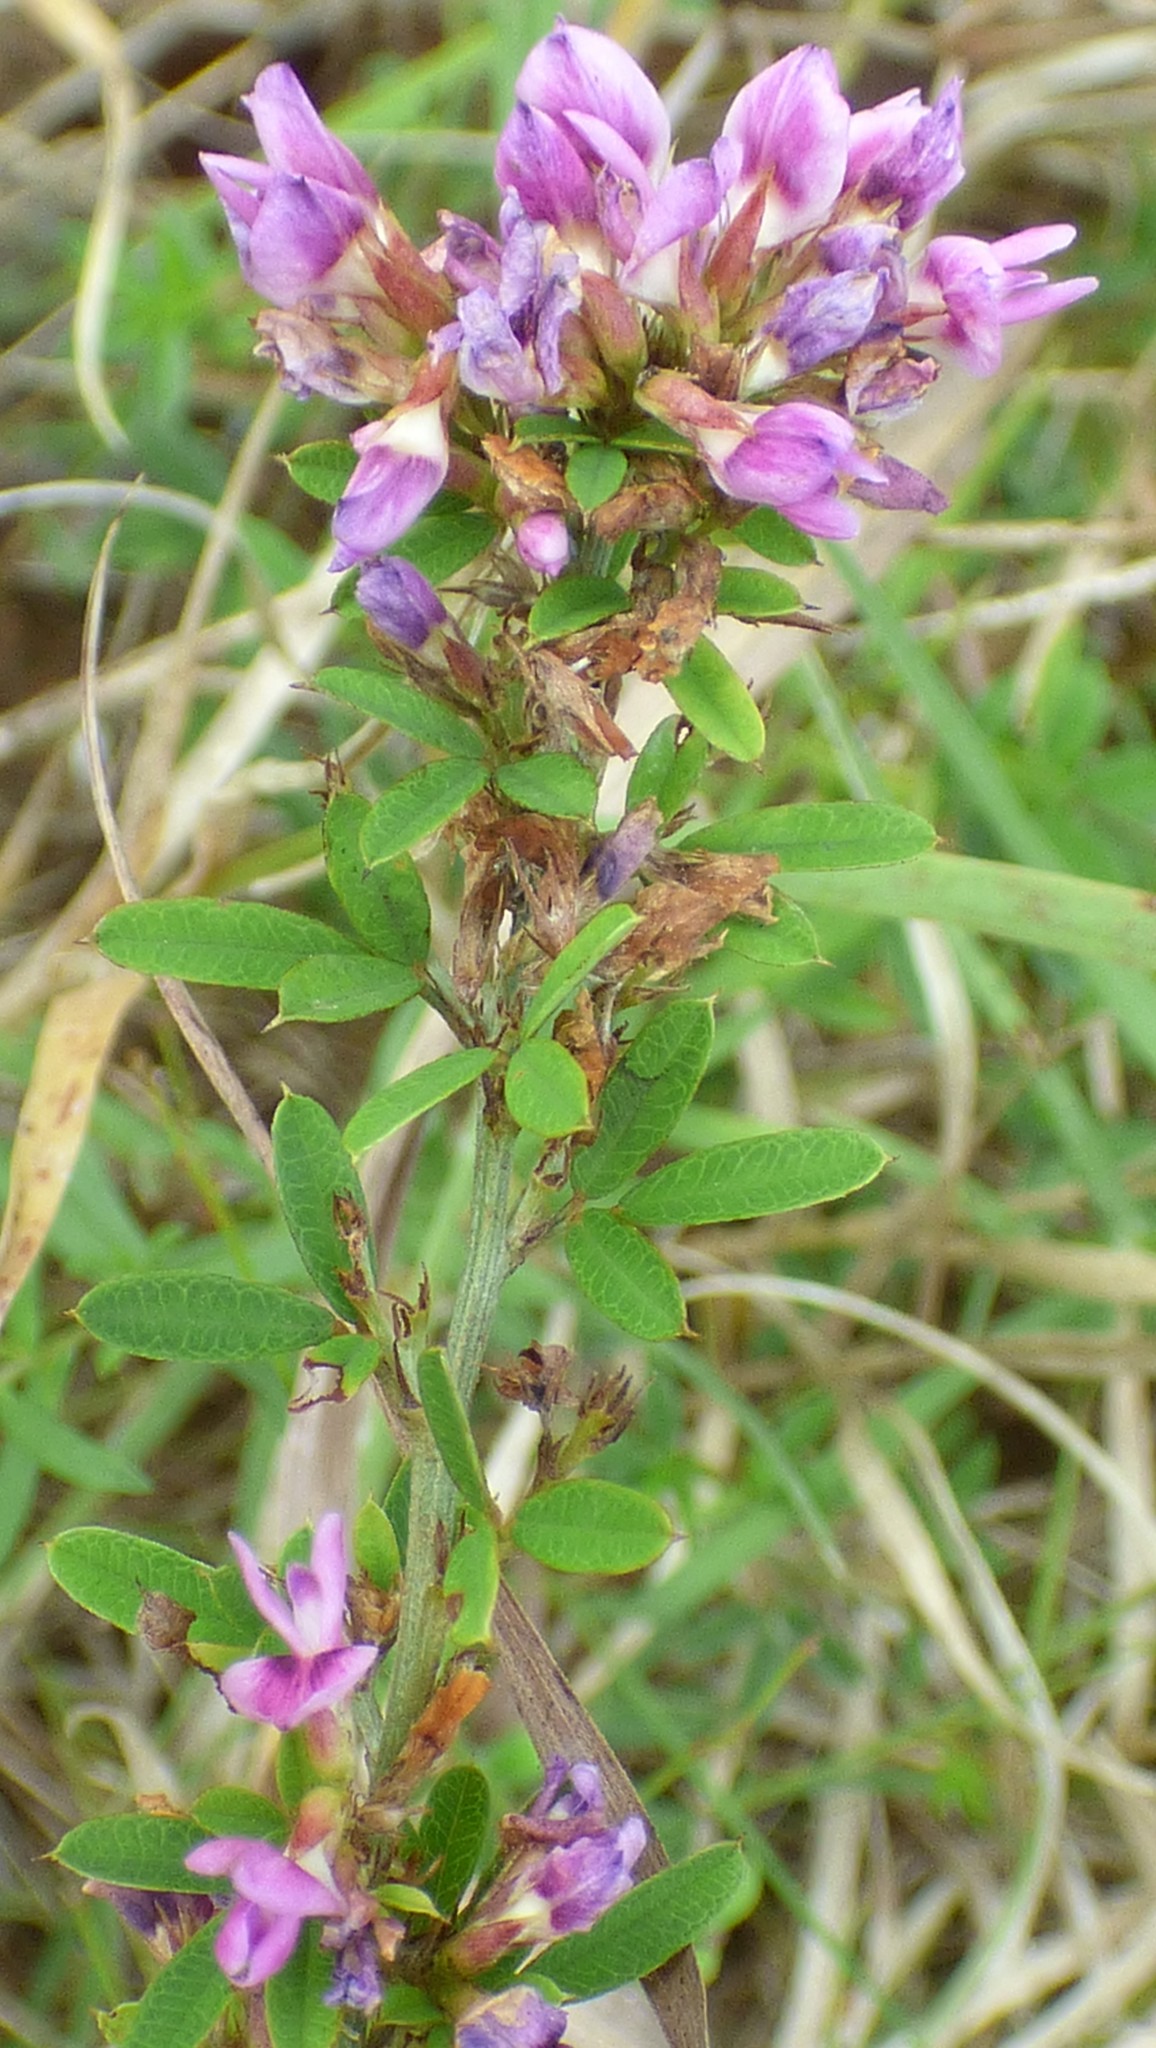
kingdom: Plantae
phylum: Tracheophyta
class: Magnoliopsida
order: Fabales
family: Fabaceae
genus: Lespedeza
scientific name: Lespedeza virginica
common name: Slender bush-clover
